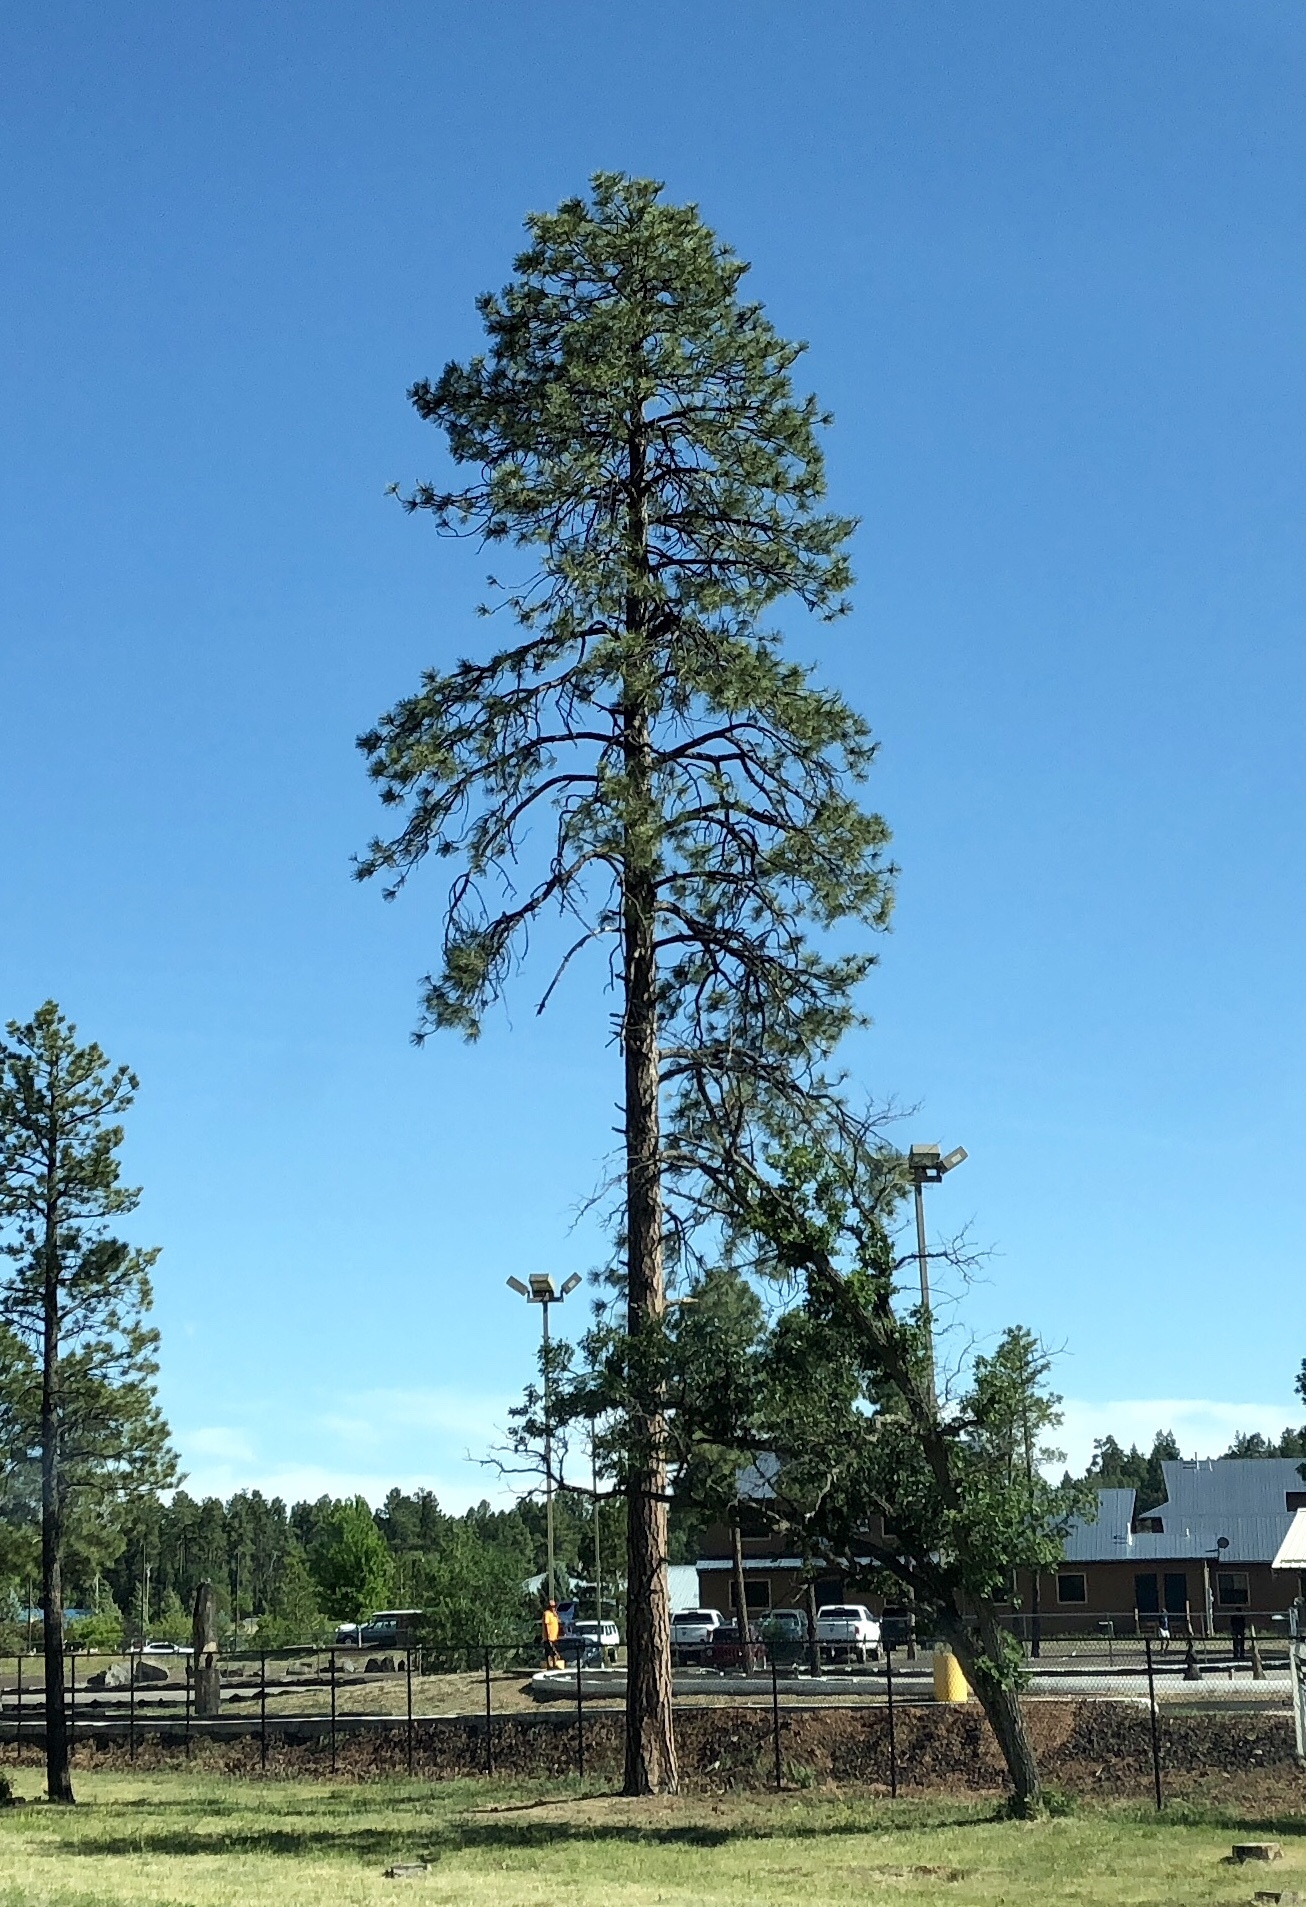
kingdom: Plantae
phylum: Tracheophyta
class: Pinopsida
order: Pinales
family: Pinaceae
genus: Pinus
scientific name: Pinus ponderosa
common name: Western yellow-pine
